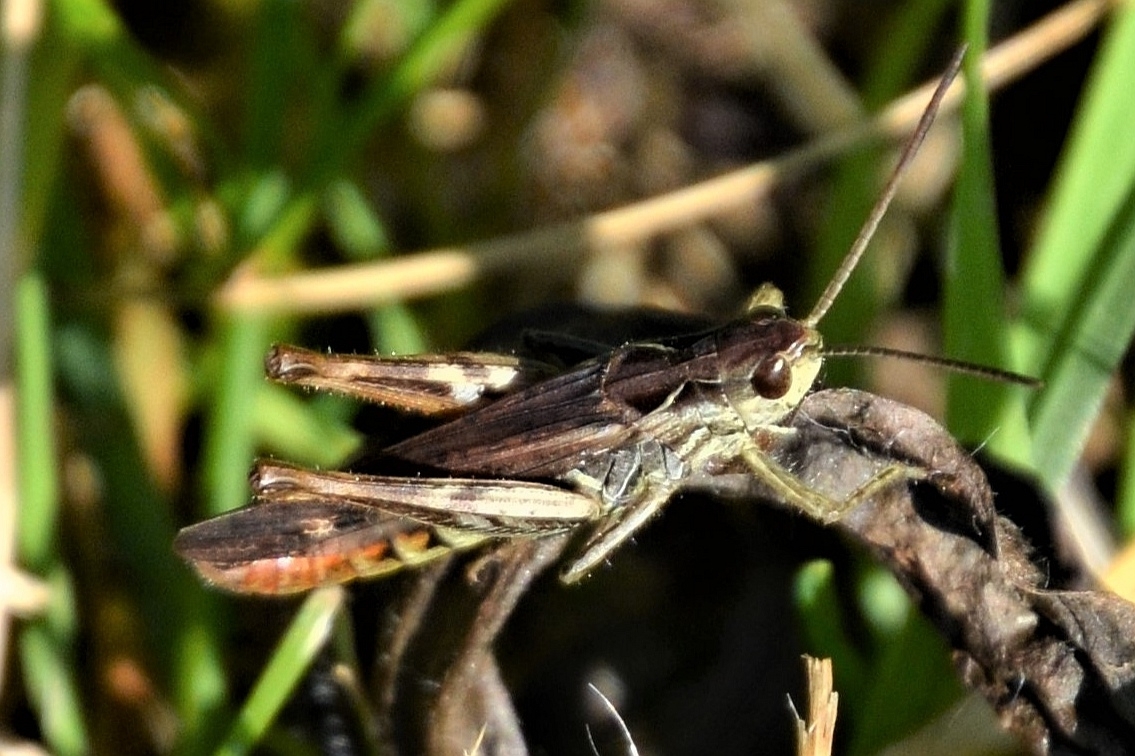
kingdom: Animalia
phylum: Arthropoda
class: Insecta
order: Orthoptera
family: Acrididae
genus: Chorthippus
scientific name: Chorthippus biguttulus
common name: Bow-winged grasshopper
